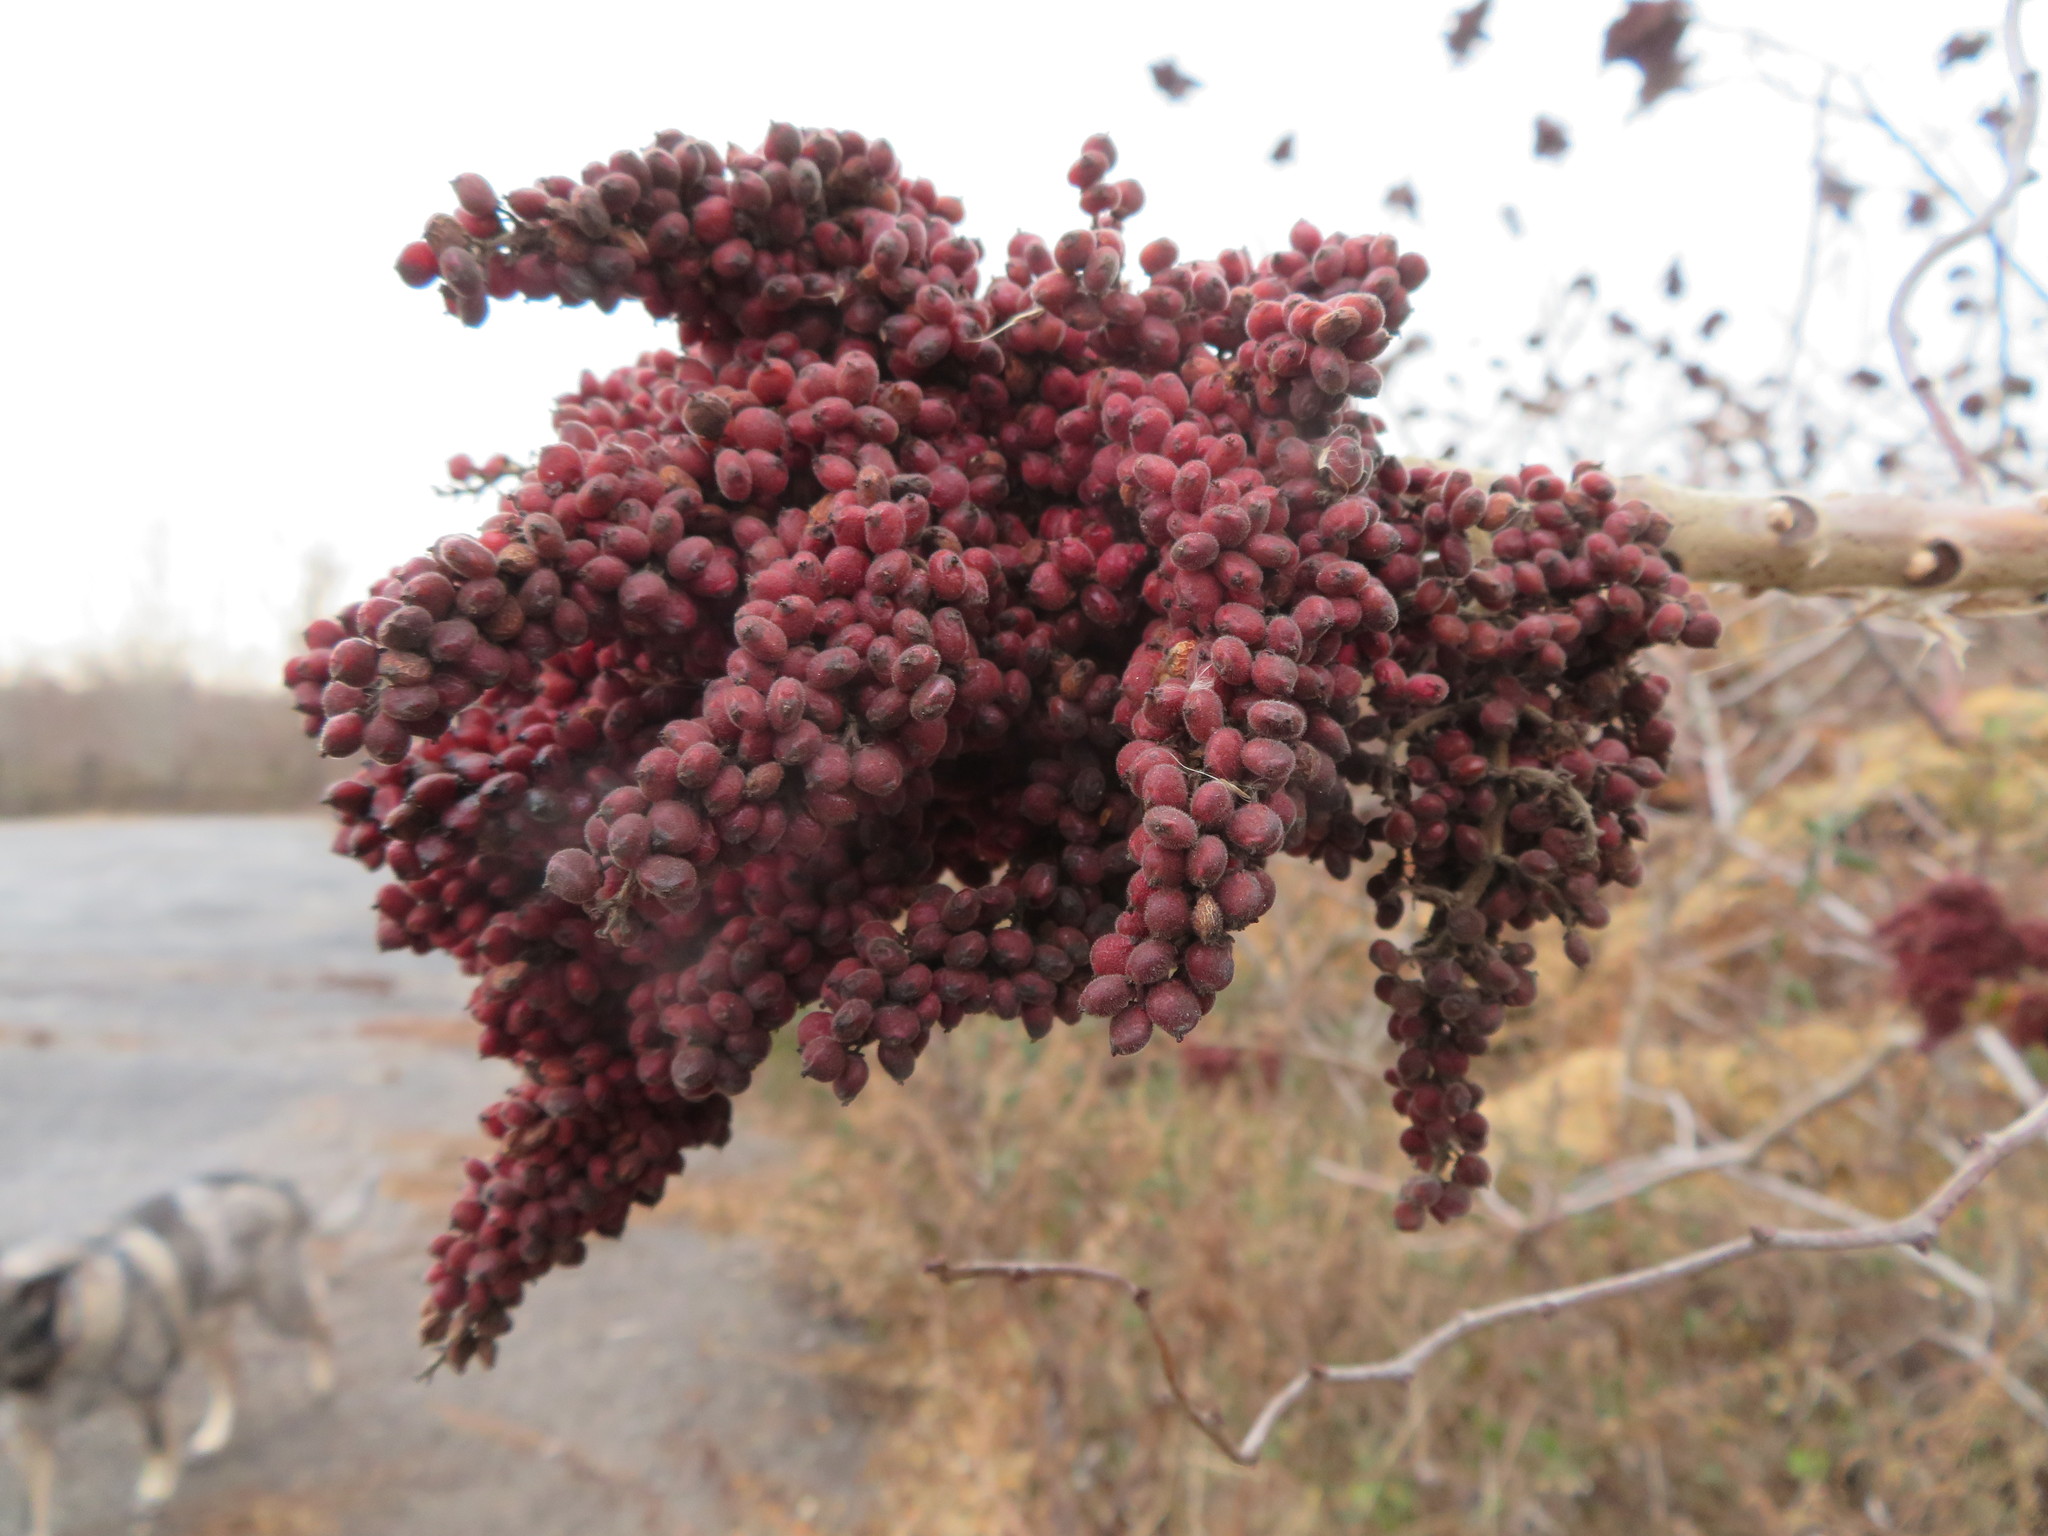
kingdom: Plantae
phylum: Tracheophyta
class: Magnoliopsida
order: Sapindales
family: Anacardiaceae
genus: Rhus
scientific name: Rhus copallina
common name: Shining sumac
